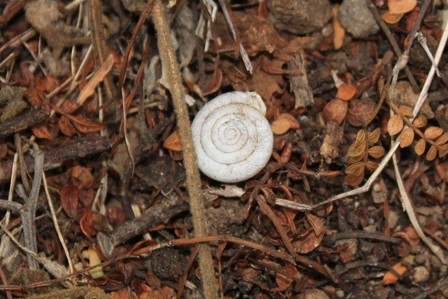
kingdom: Animalia
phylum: Mollusca
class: Gastropoda
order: Stylommatophora
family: Polygyridae
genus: Linisa
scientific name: Linisa texasiana
